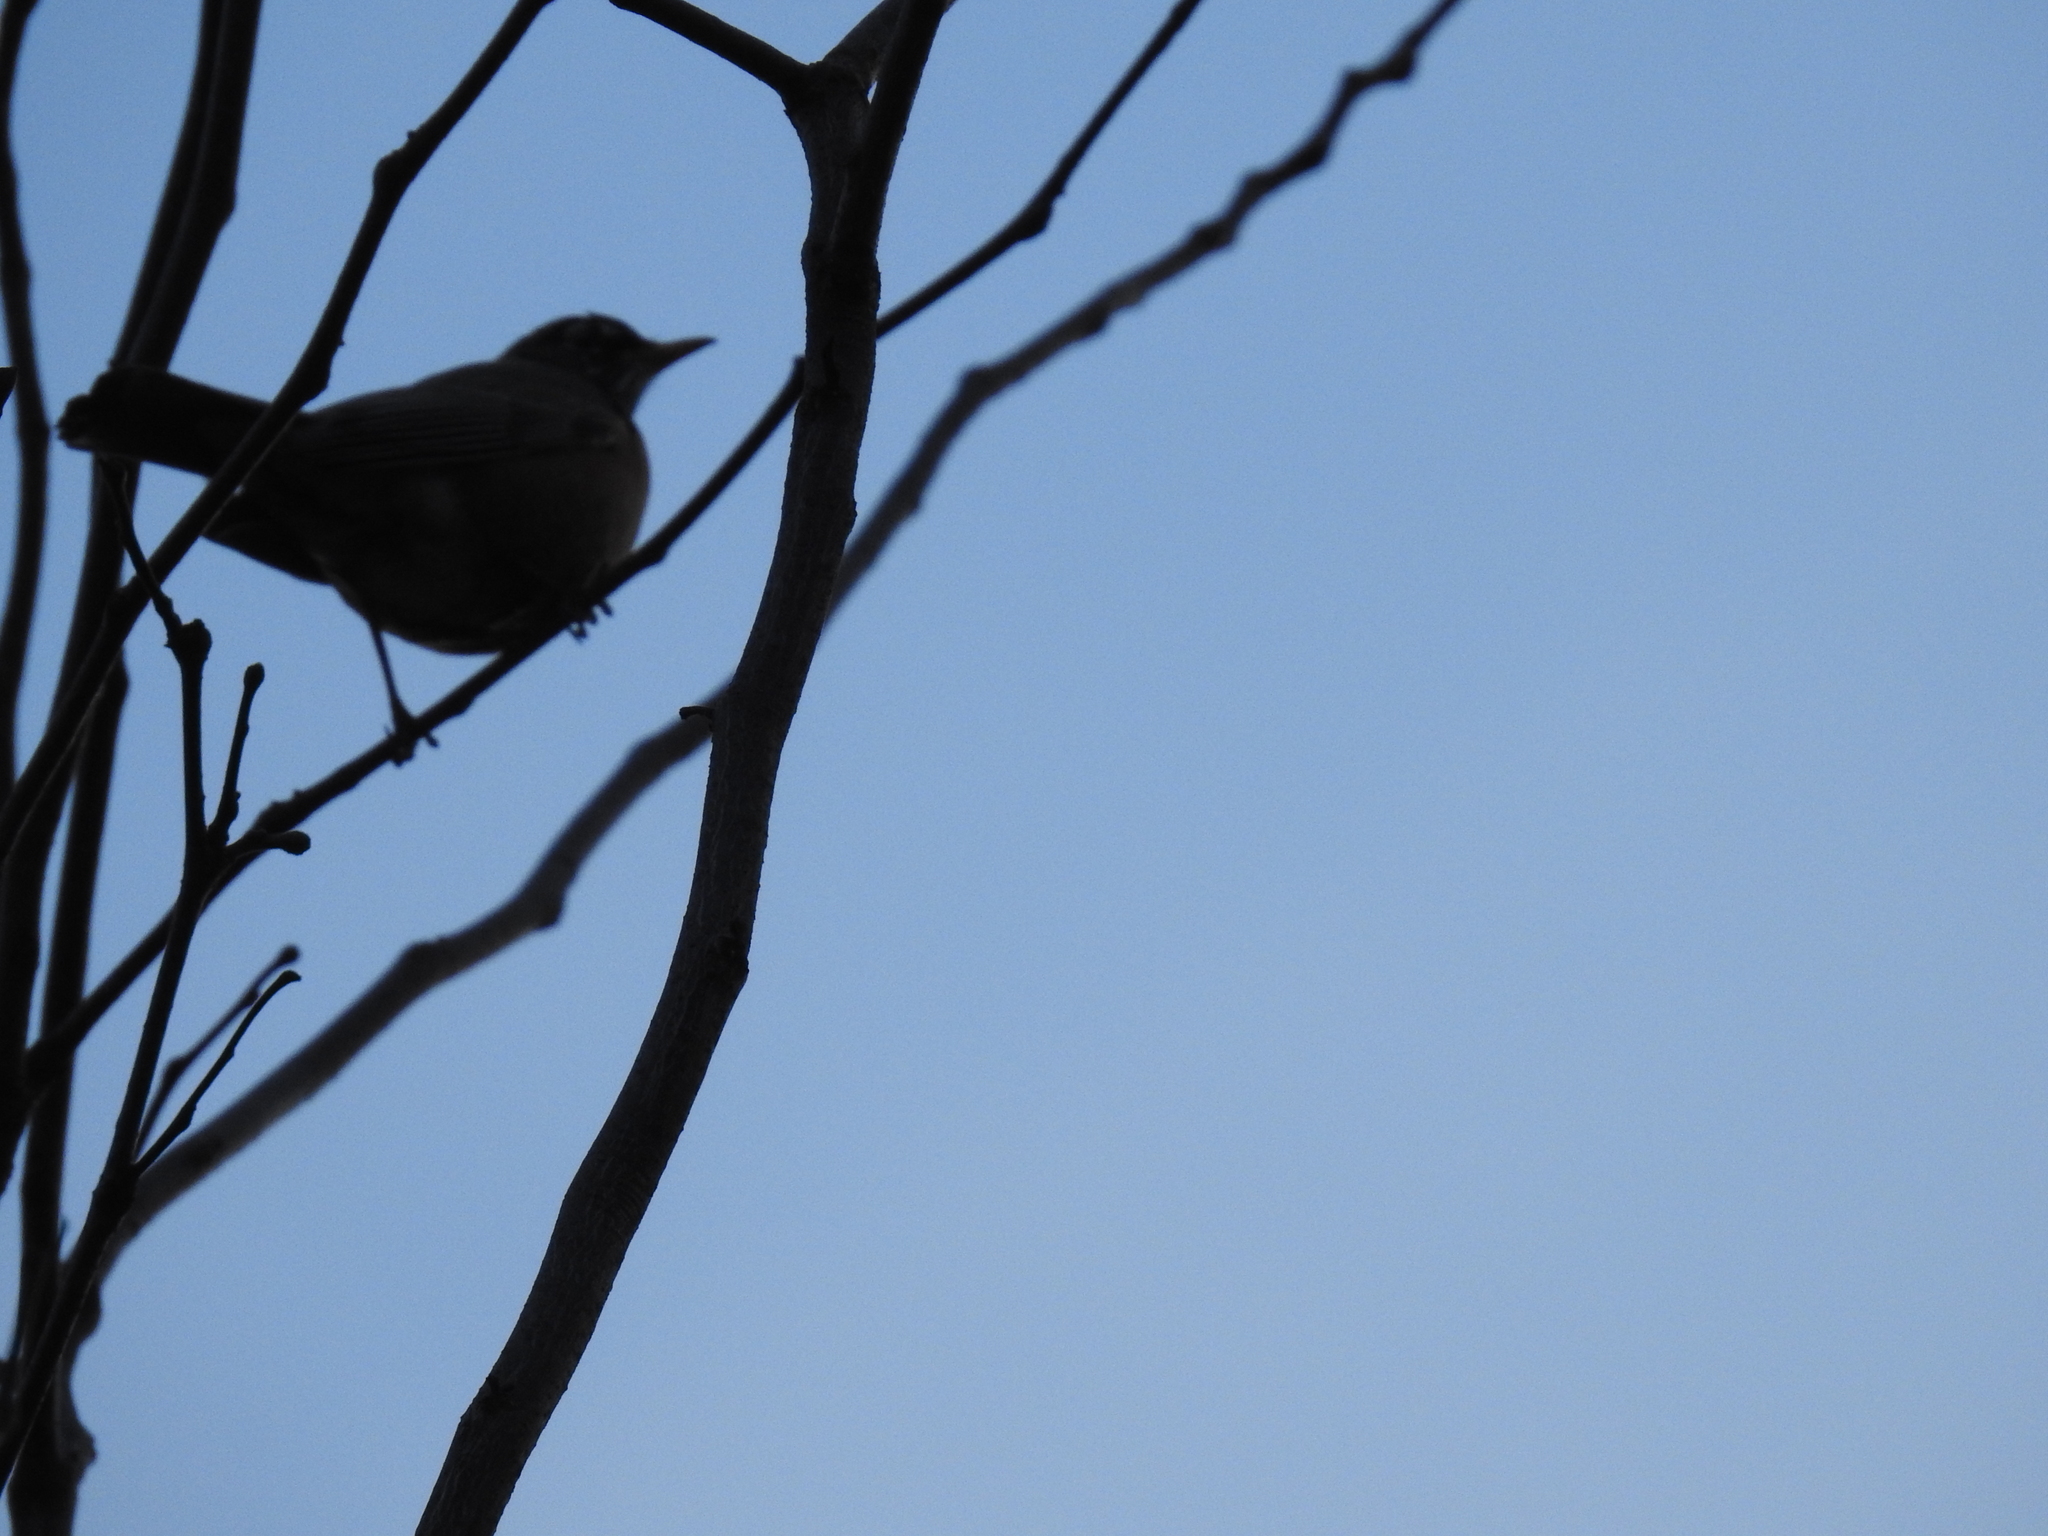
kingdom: Animalia
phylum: Chordata
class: Aves
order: Passeriformes
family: Turdidae
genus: Turdus
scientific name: Turdus migratorius
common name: American robin
